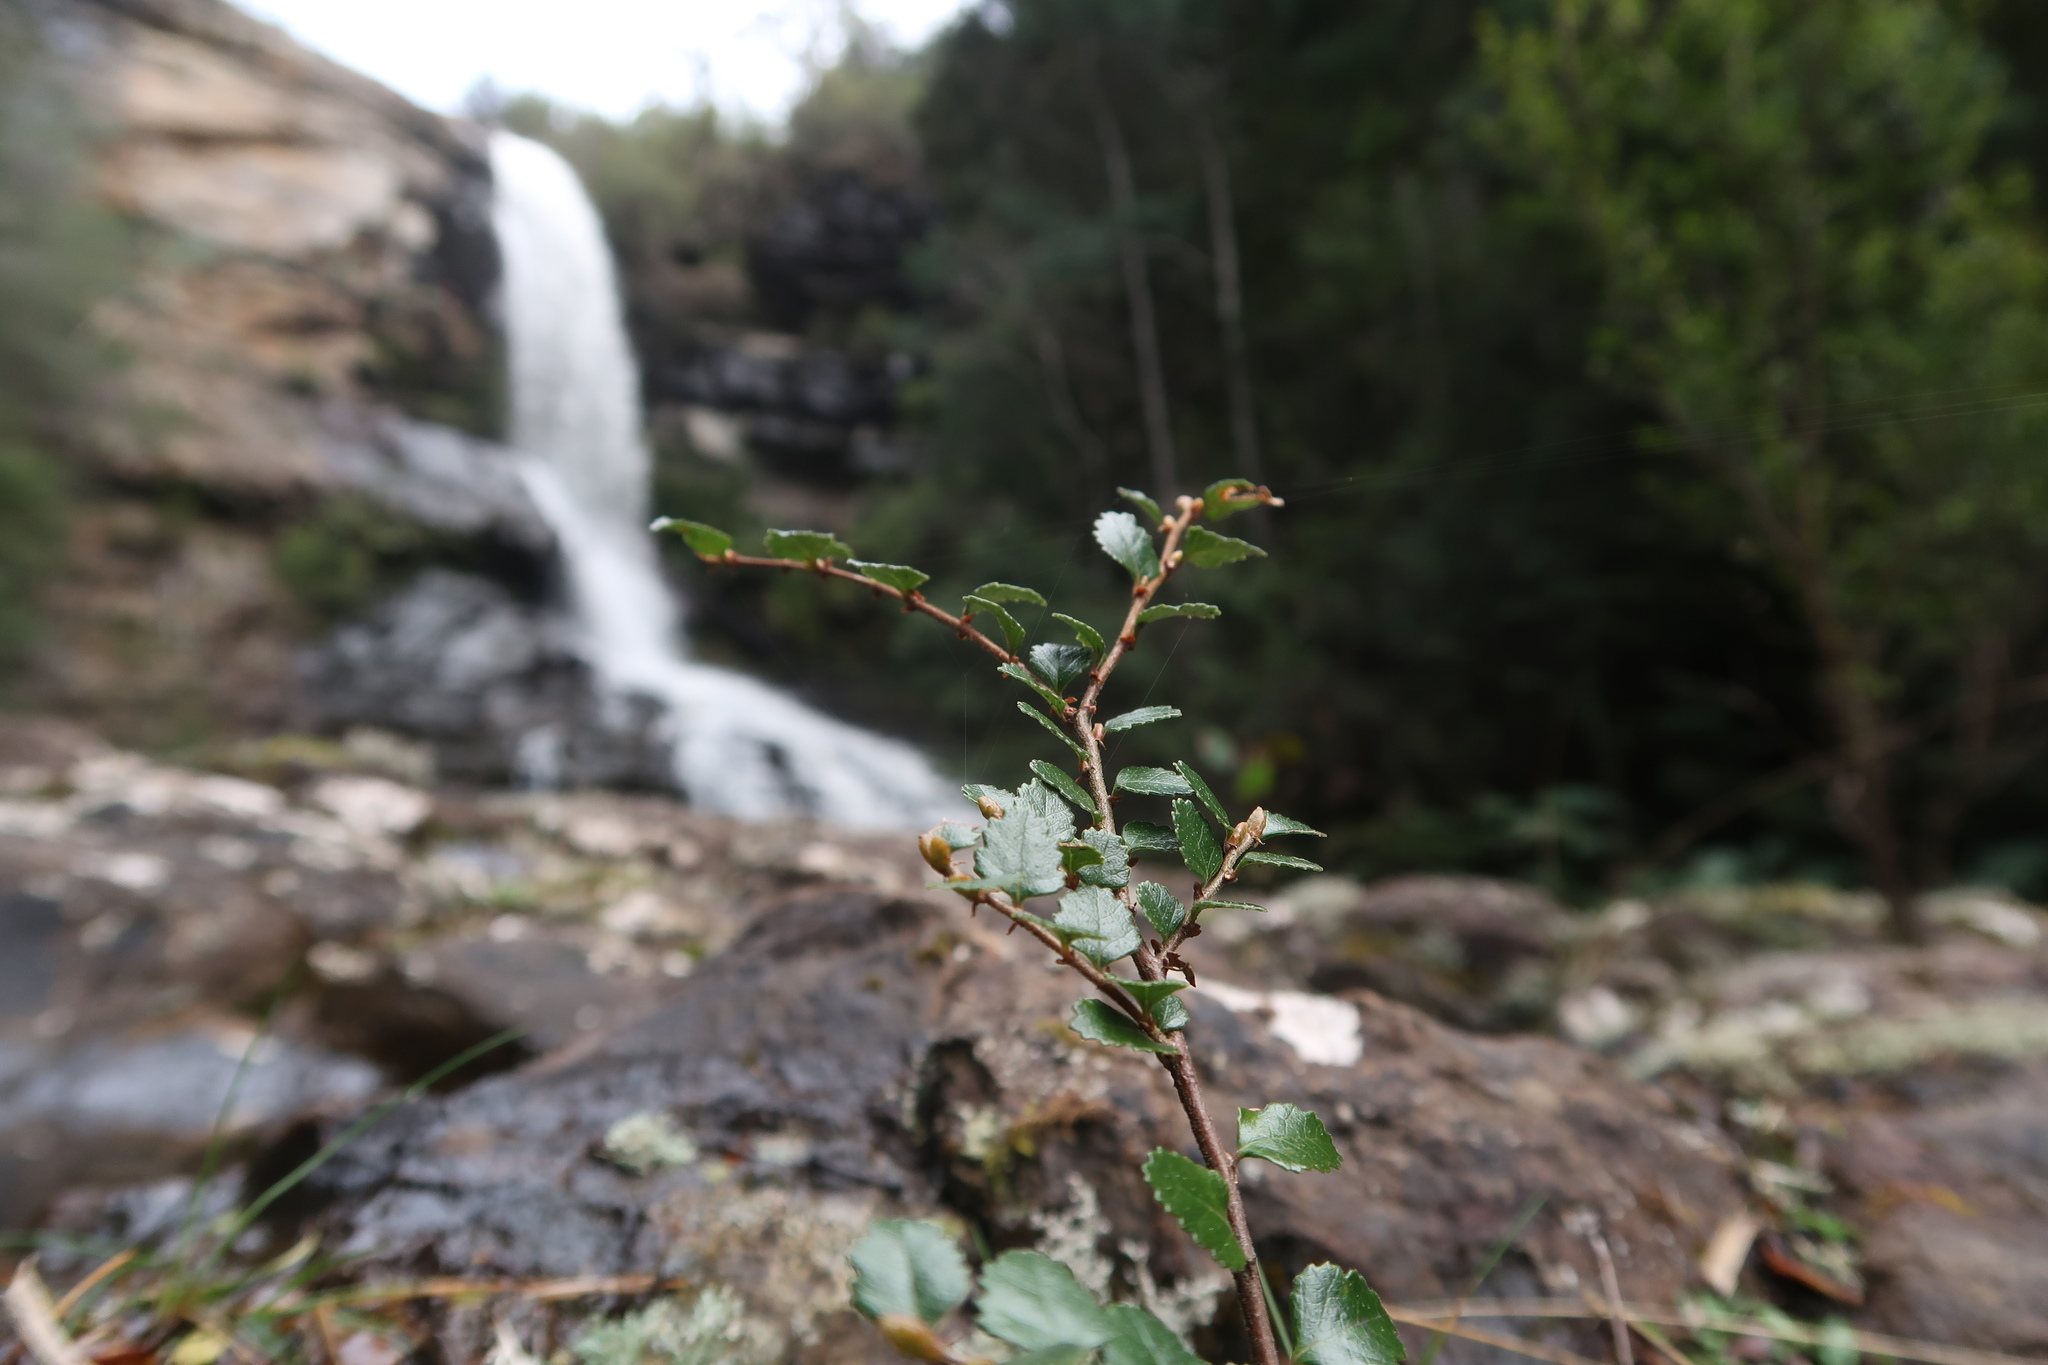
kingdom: Plantae
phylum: Tracheophyta
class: Magnoliopsida
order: Fagales
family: Nothofagaceae
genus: Nothofagus
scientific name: Nothofagus cunninghamii
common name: Myrtle beech
